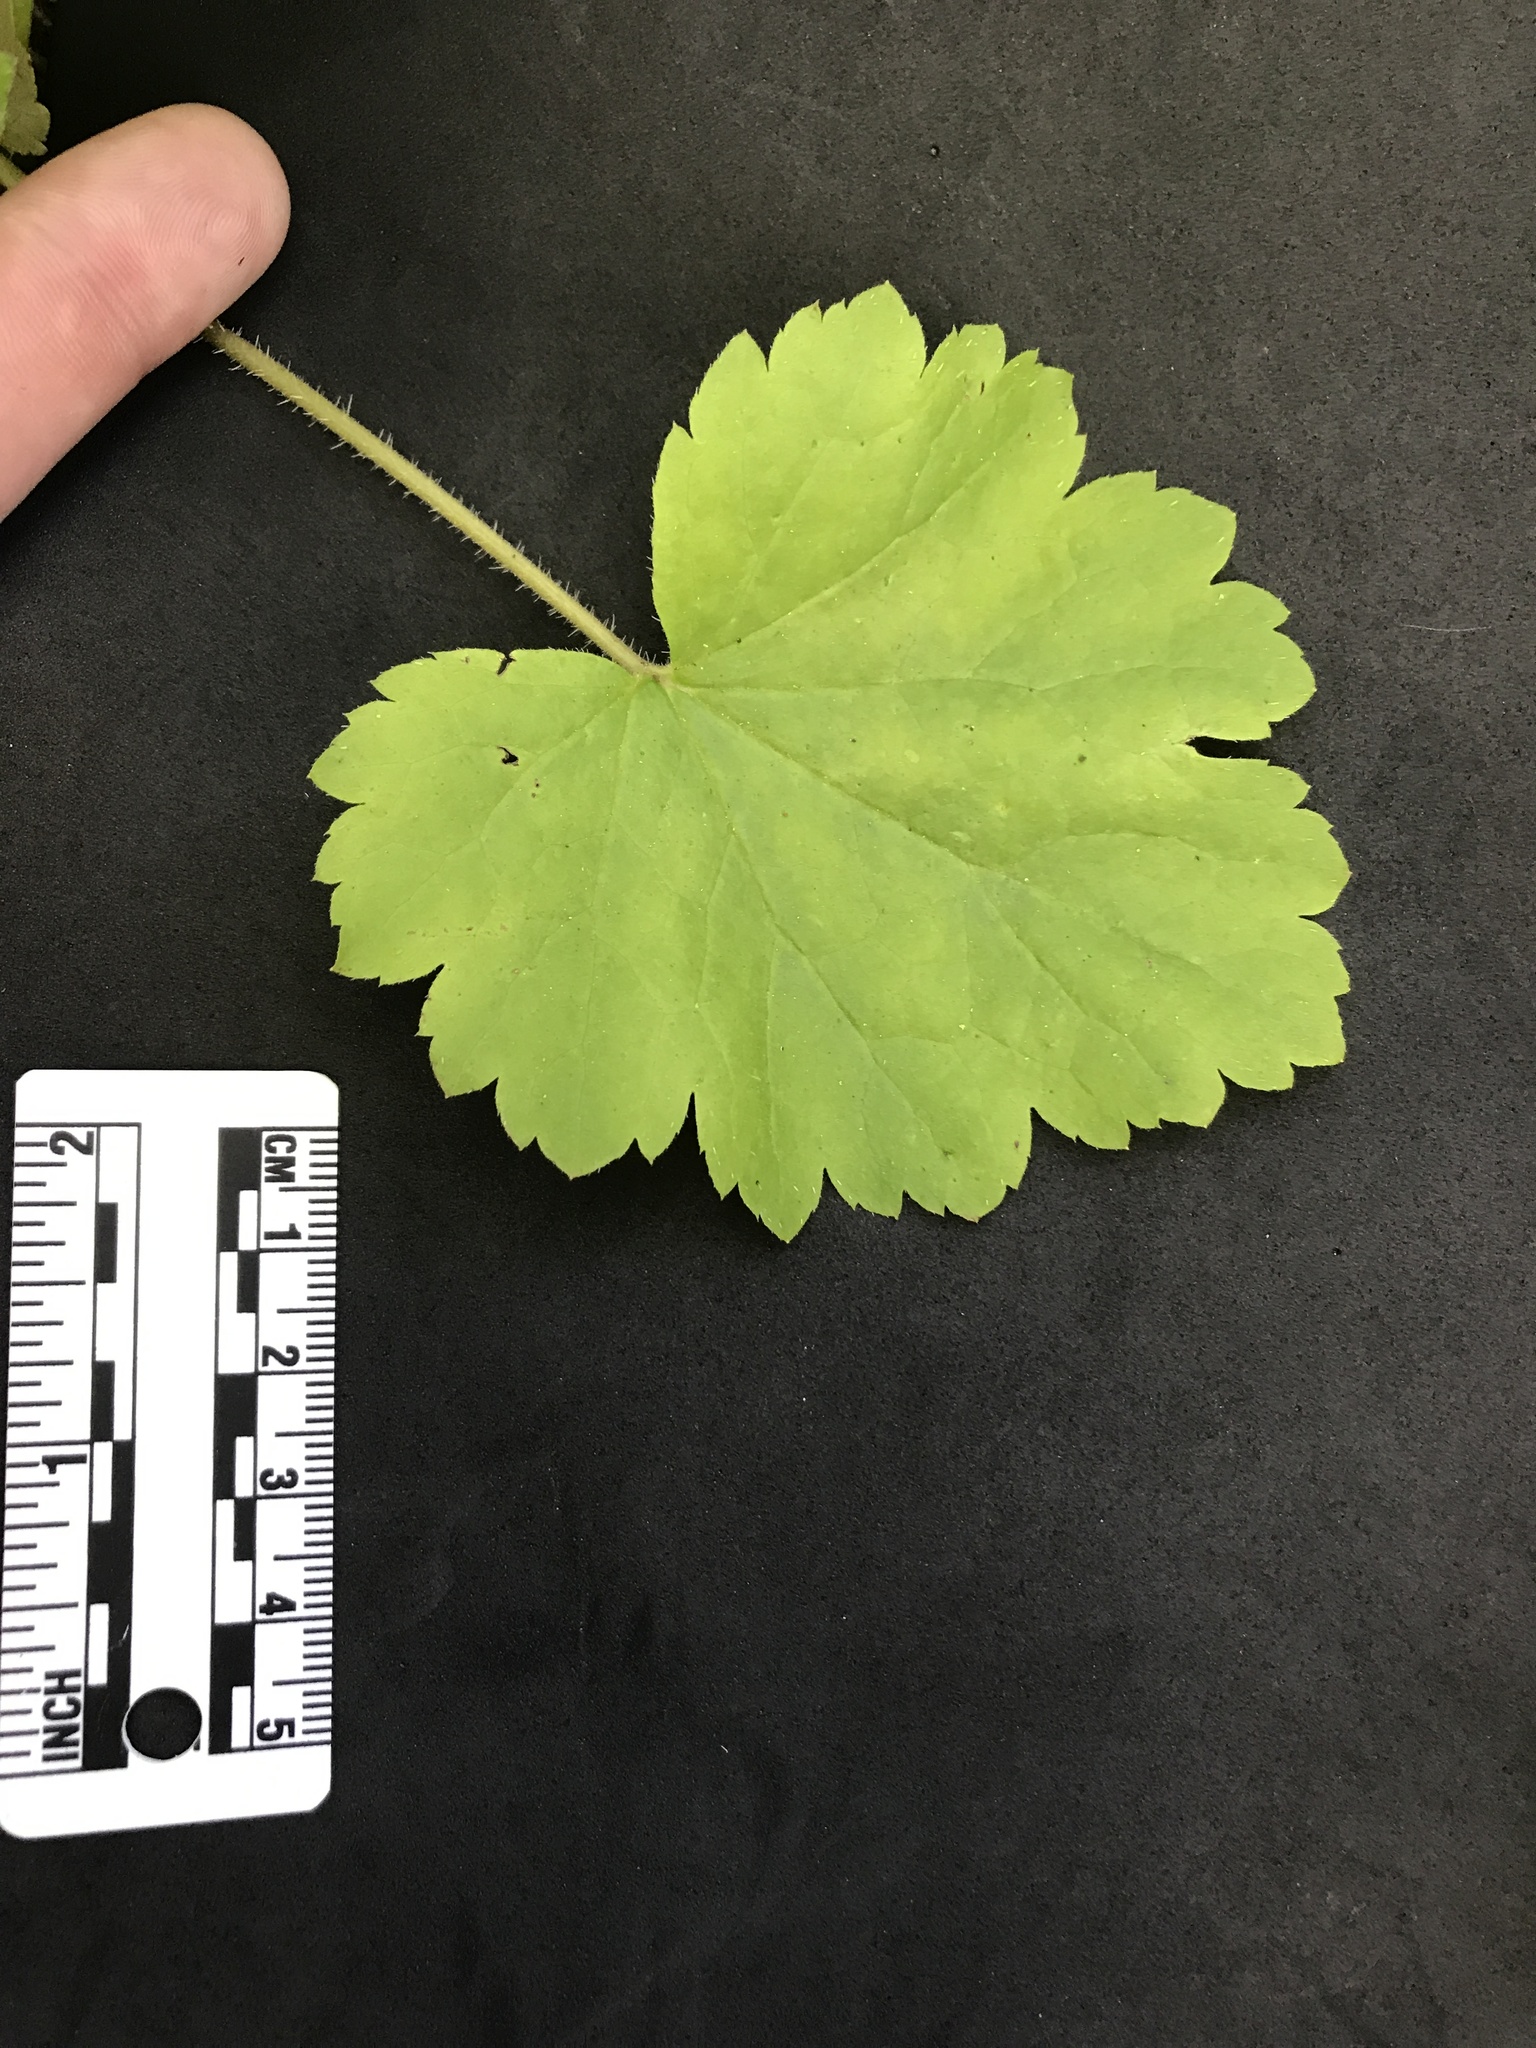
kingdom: Plantae
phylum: Tracheophyta
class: Magnoliopsida
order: Saxifragales
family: Saxifragaceae
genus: Tellima
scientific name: Tellima grandiflora
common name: Fringecups
